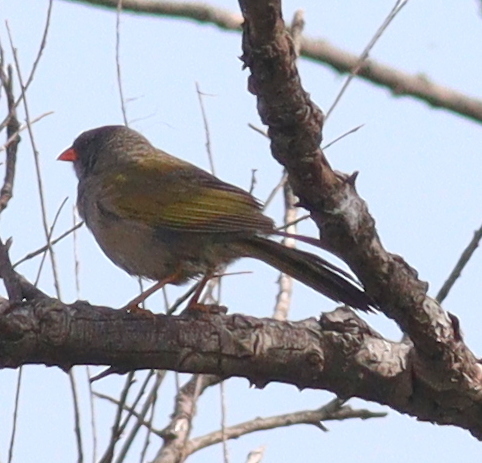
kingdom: Animalia
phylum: Chordata
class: Aves
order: Passeriformes
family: Thraupidae
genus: Embernagra
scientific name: Embernagra platensis
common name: Pampa finch
